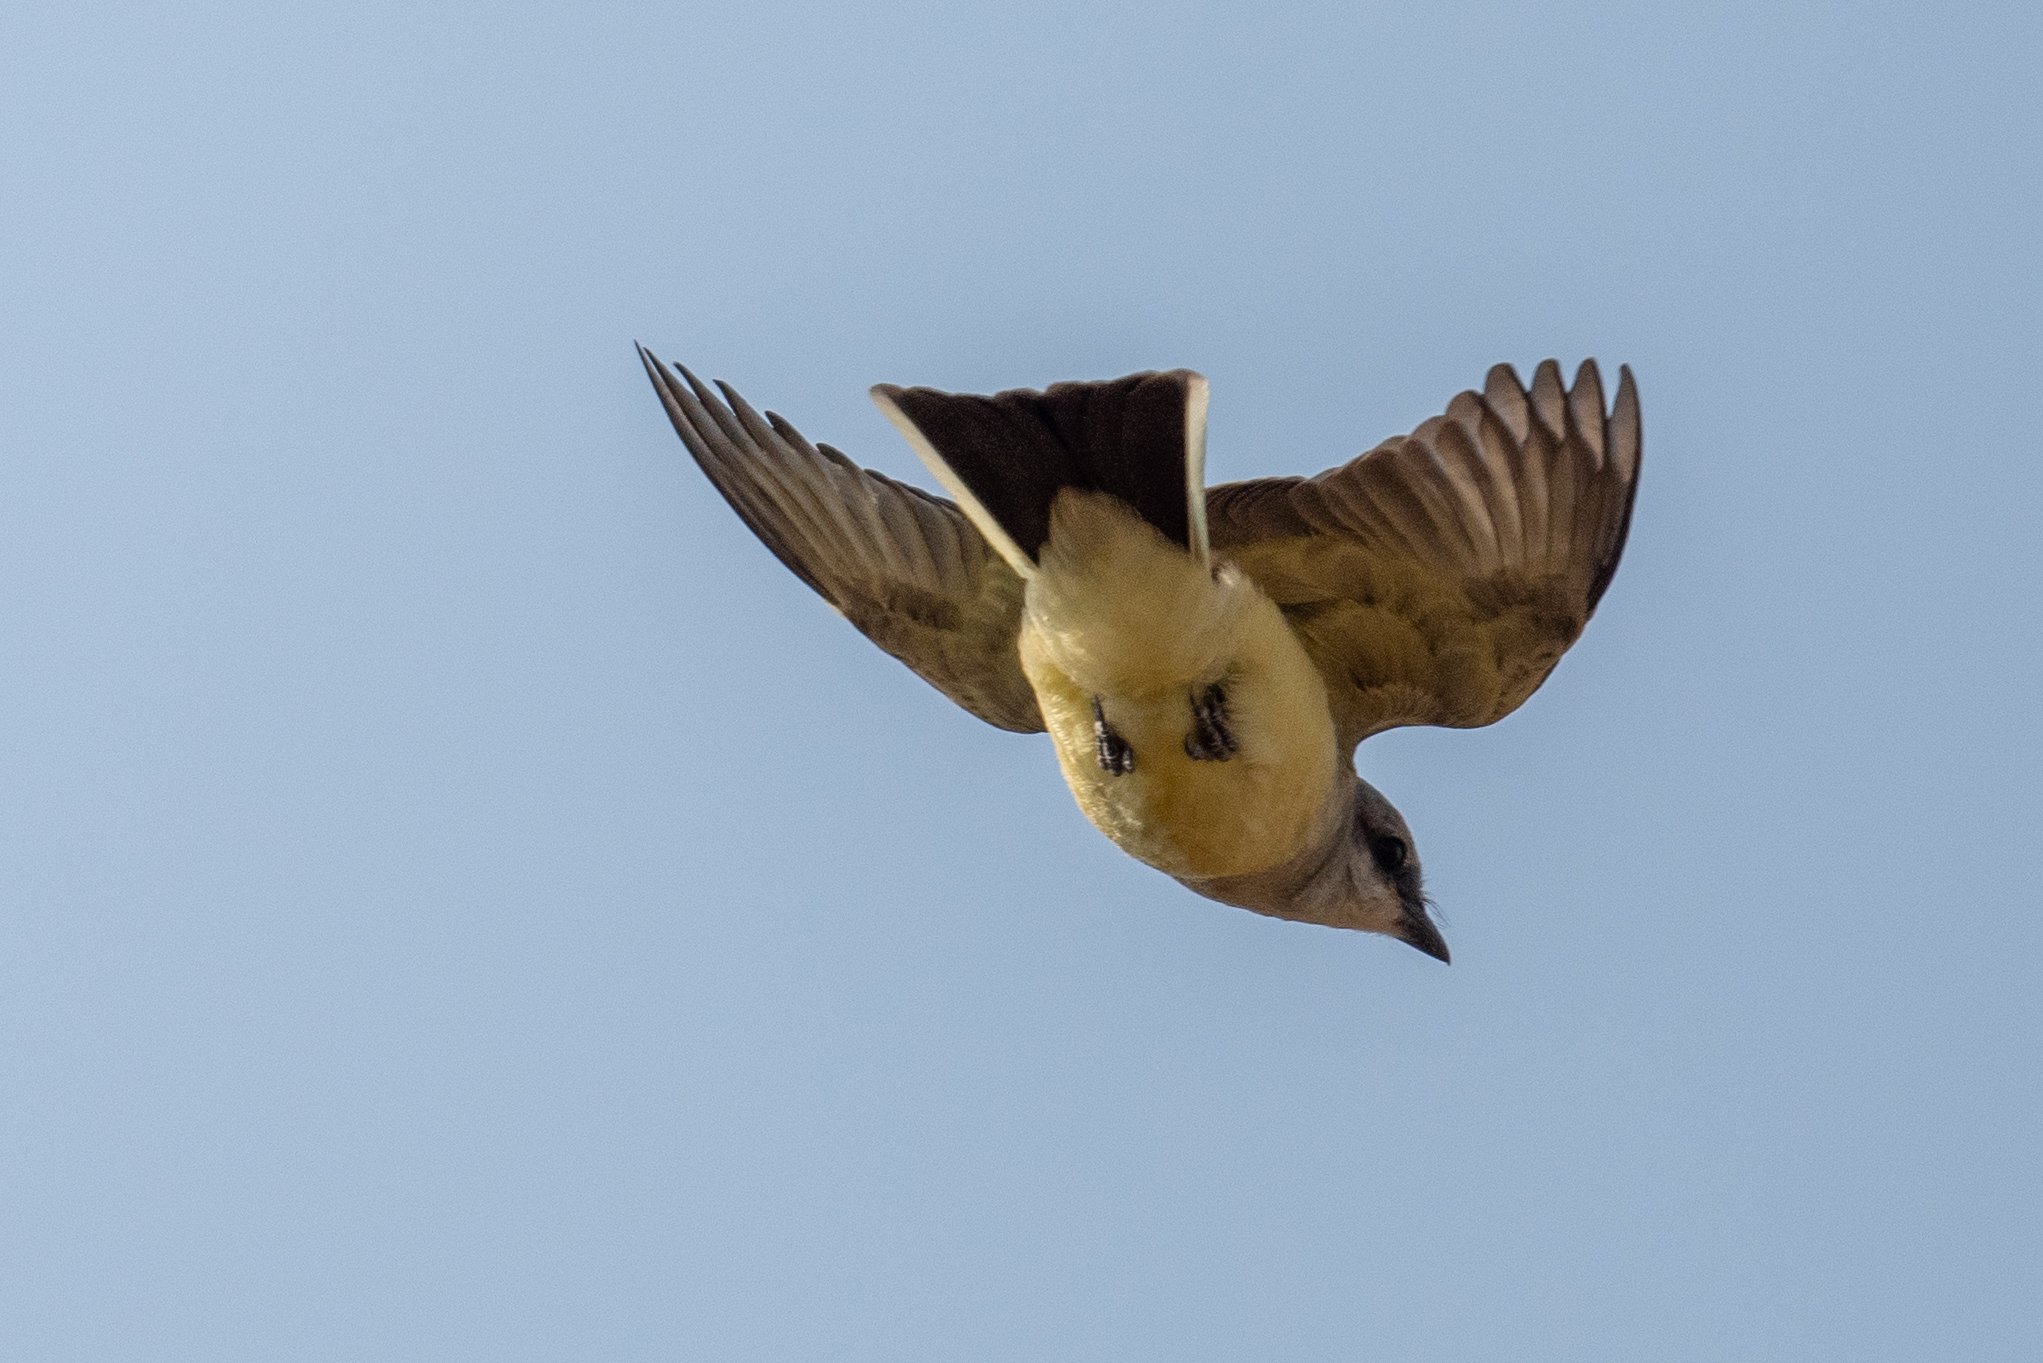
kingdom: Animalia
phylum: Chordata
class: Aves
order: Passeriformes
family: Tyrannidae
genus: Tyrannus
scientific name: Tyrannus verticalis
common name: Western kingbird
